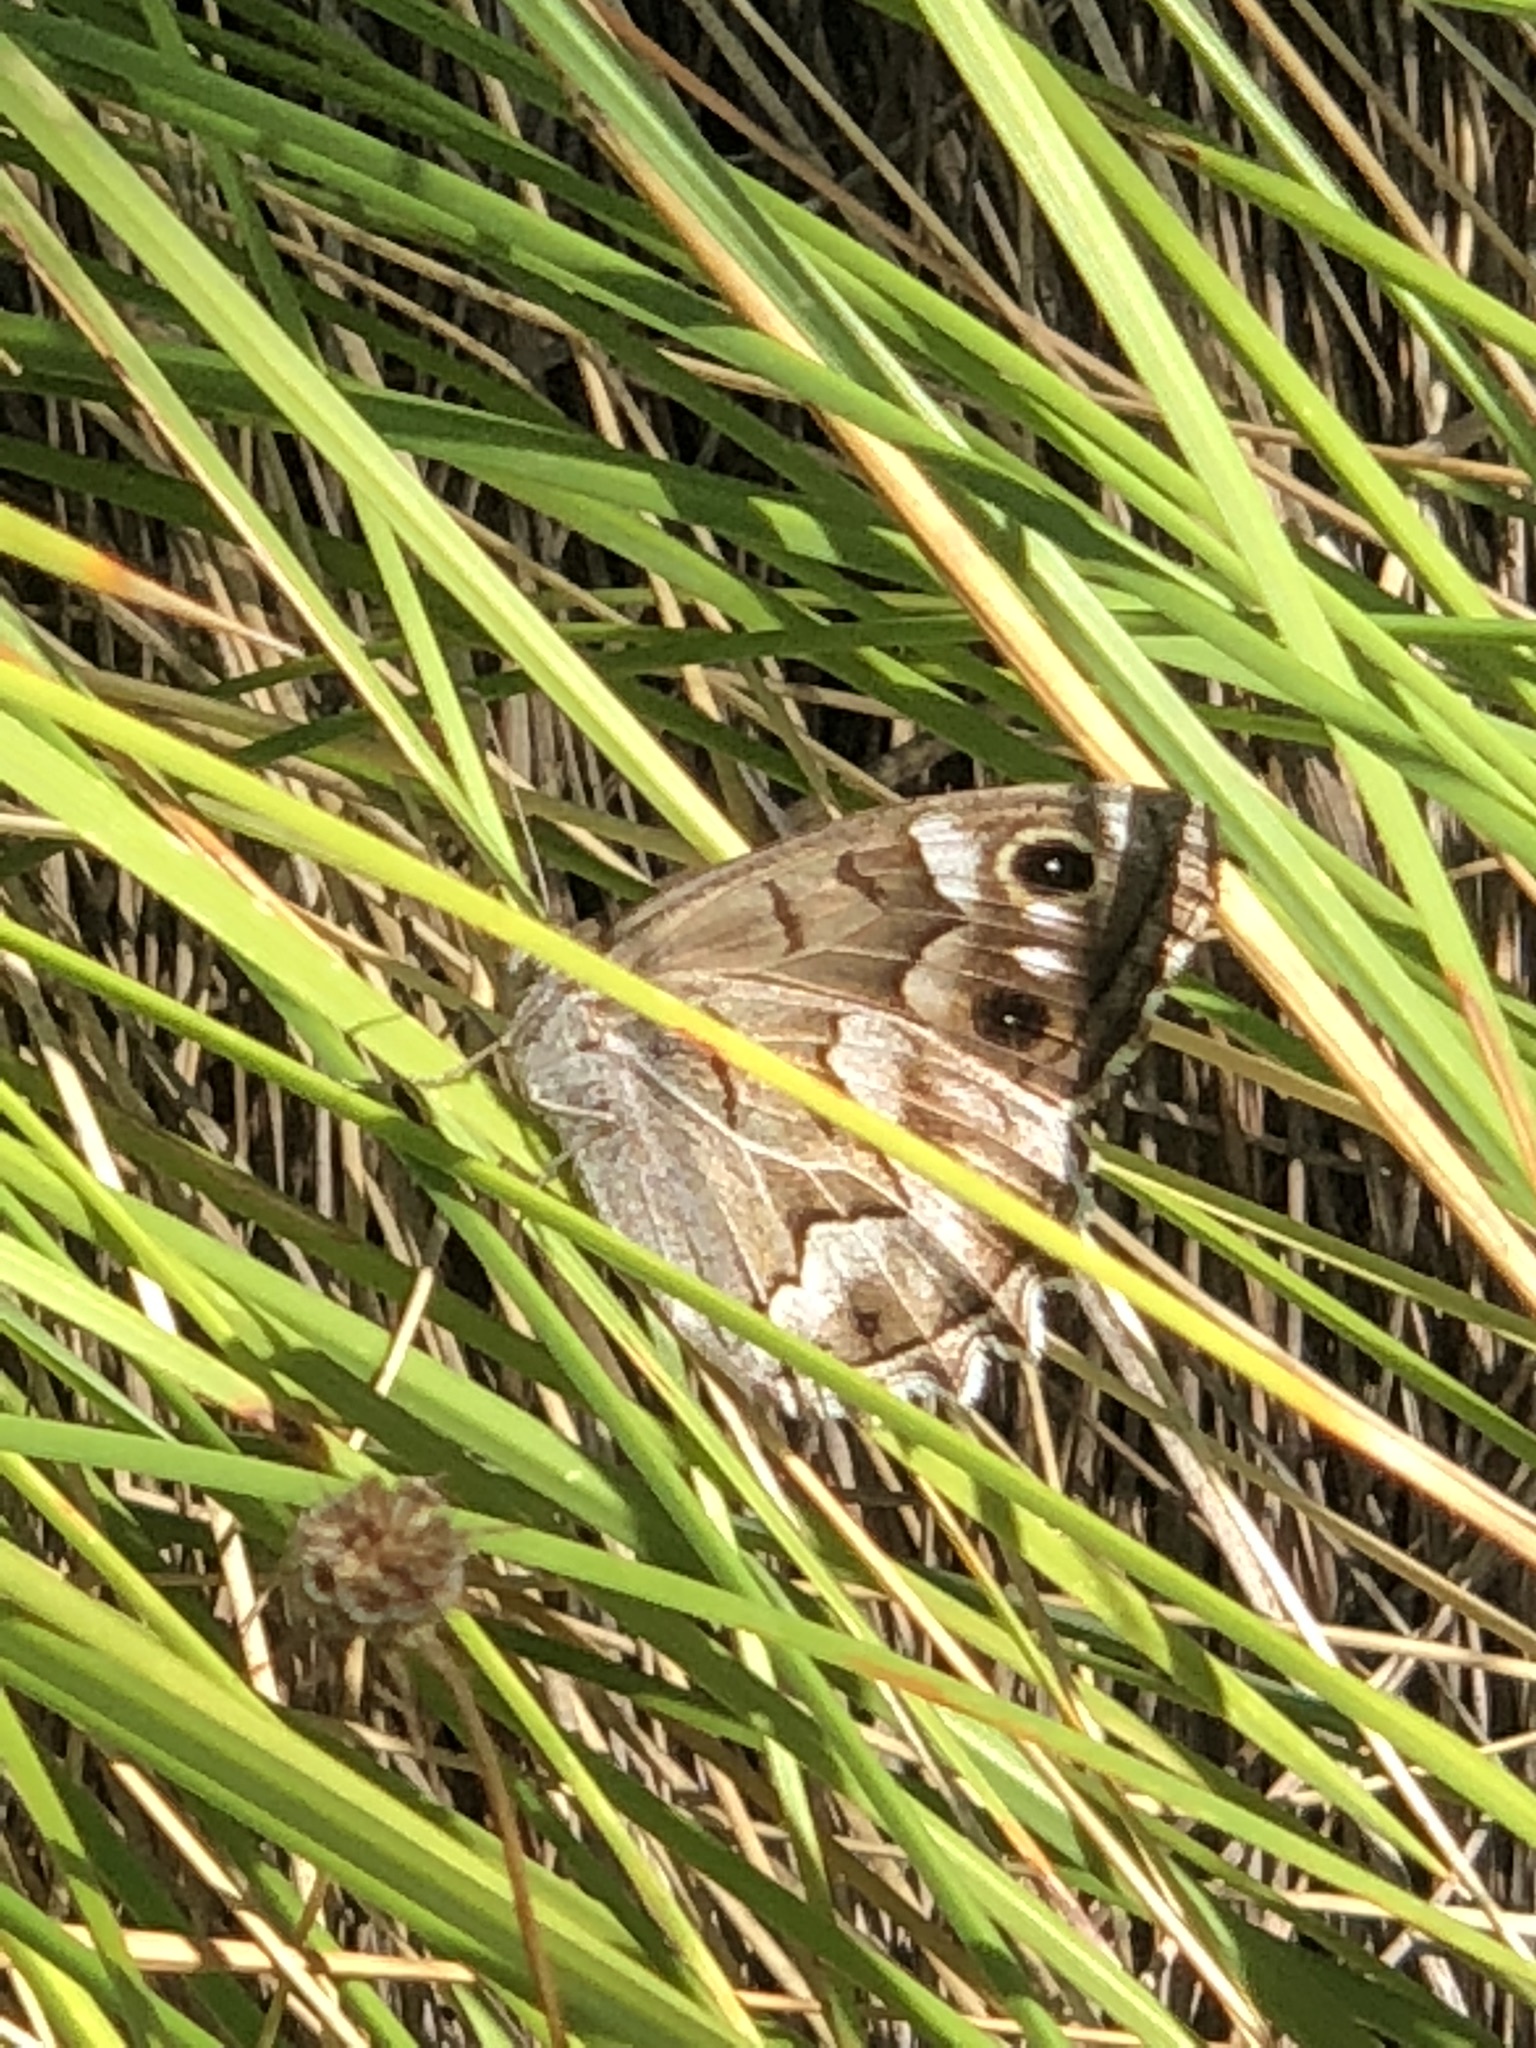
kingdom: Animalia
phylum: Arthropoda
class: Insecta
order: Lepidoptera
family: Nymphalidae
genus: Hipparchia
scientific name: Hipparchia fidia
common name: Striped grayling
